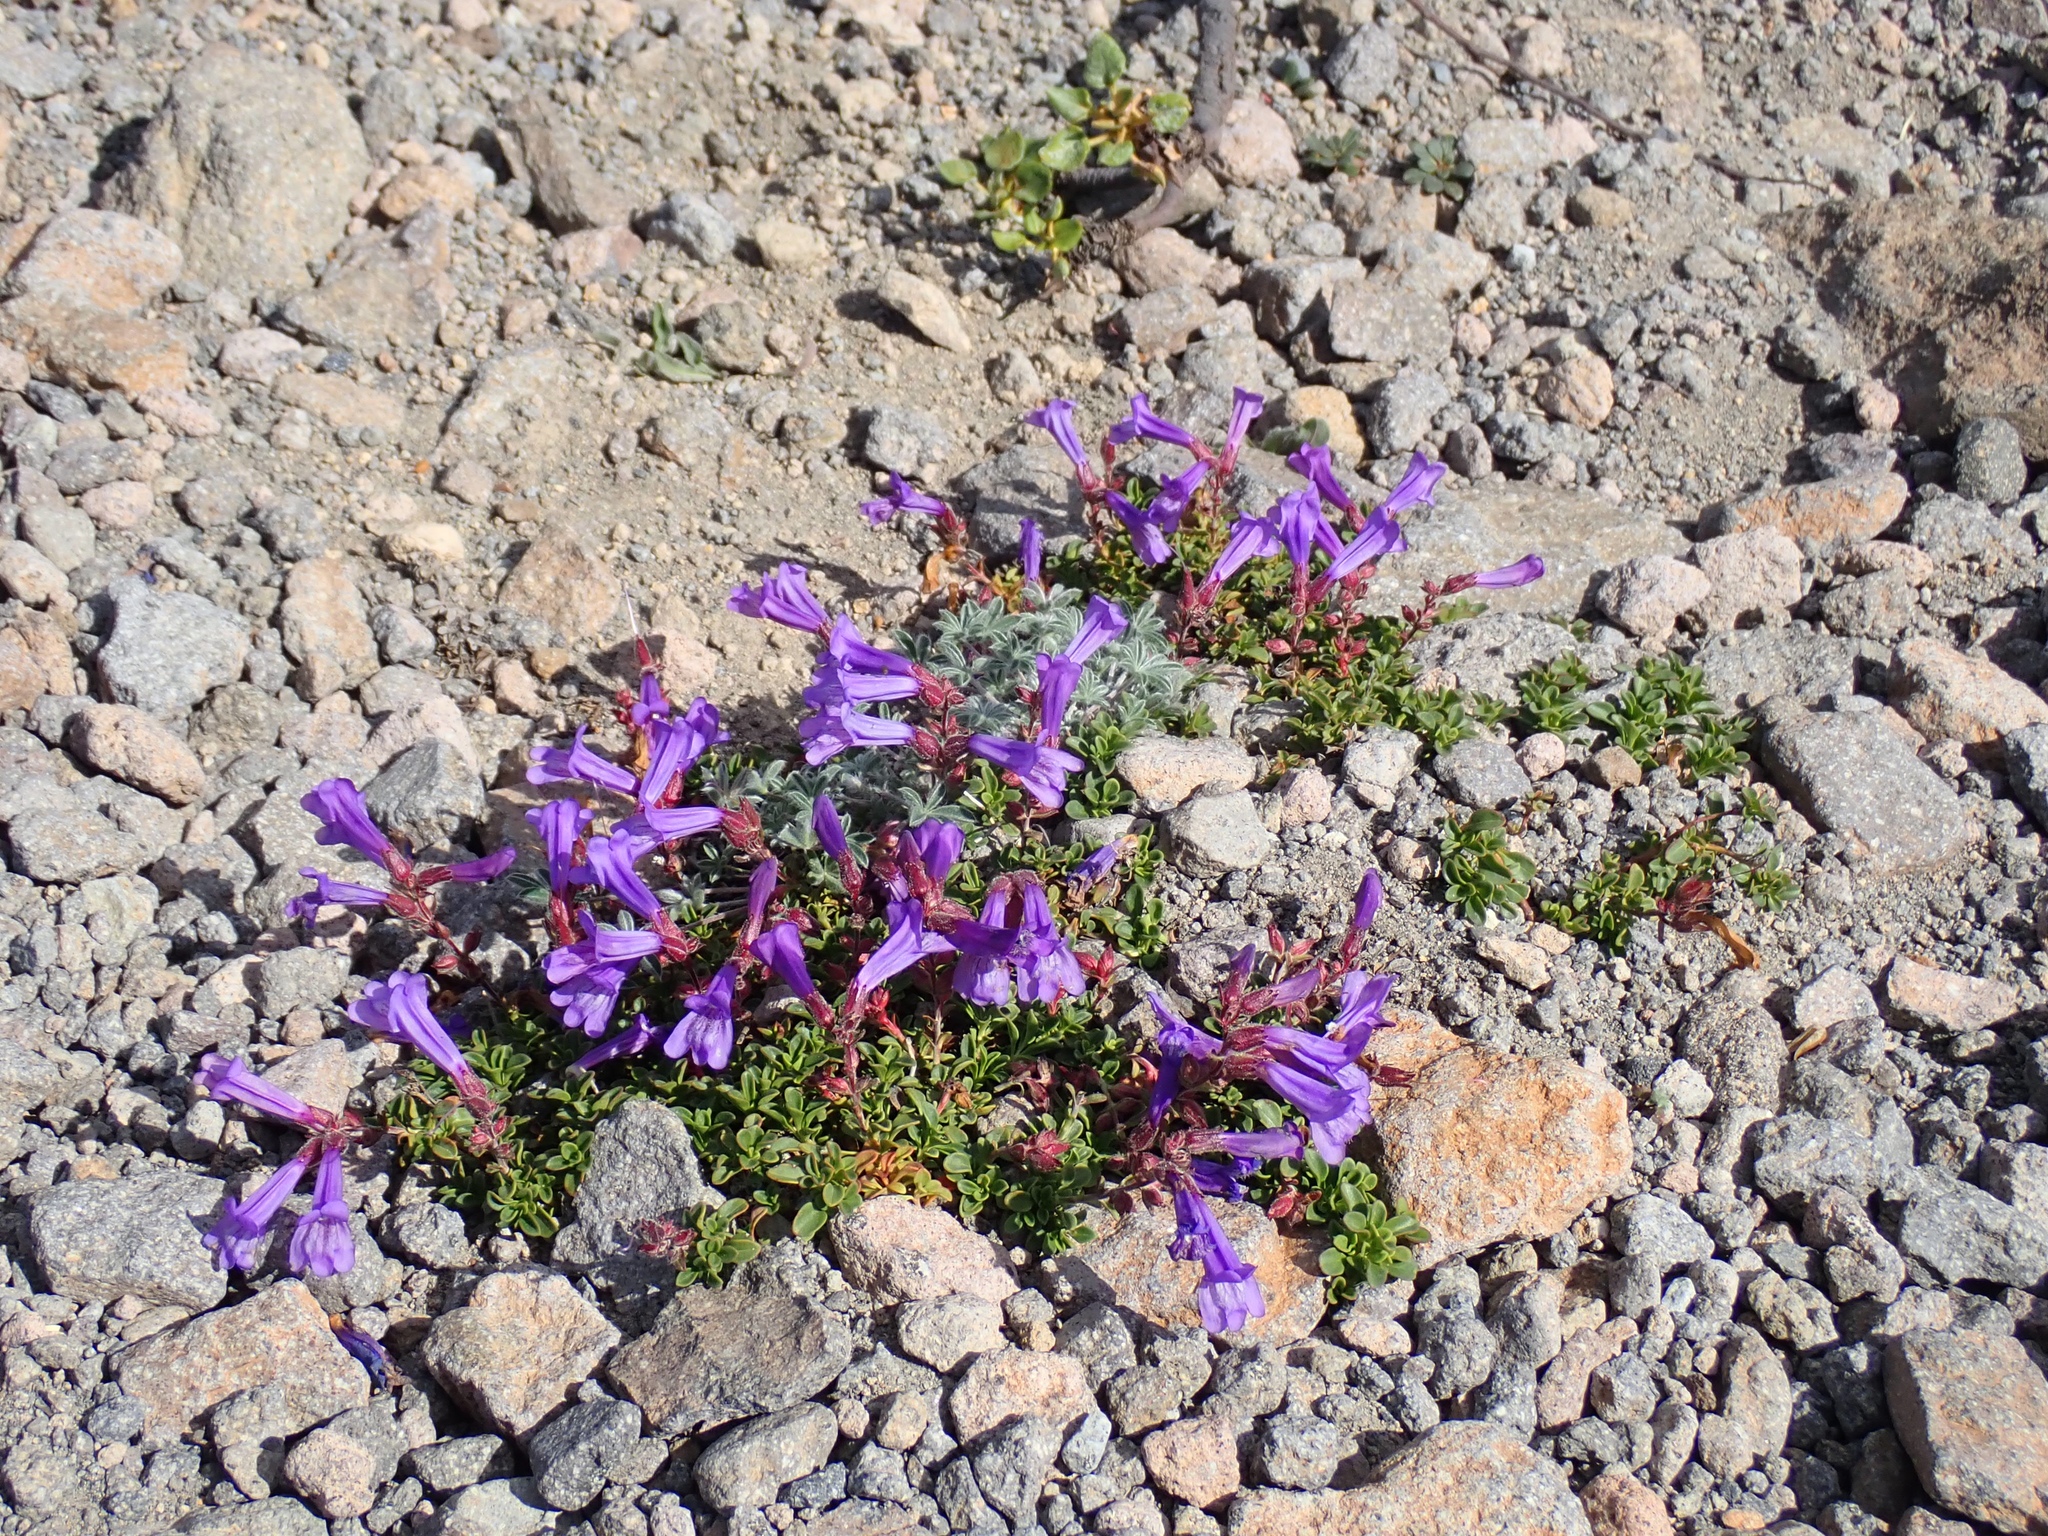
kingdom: Plantae
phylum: Tracheophyta
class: Magnoliopsida
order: Lamiales
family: Plantaginaceae
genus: Penstemon
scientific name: Penstemon davidsonii
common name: Davidson's penstemon
